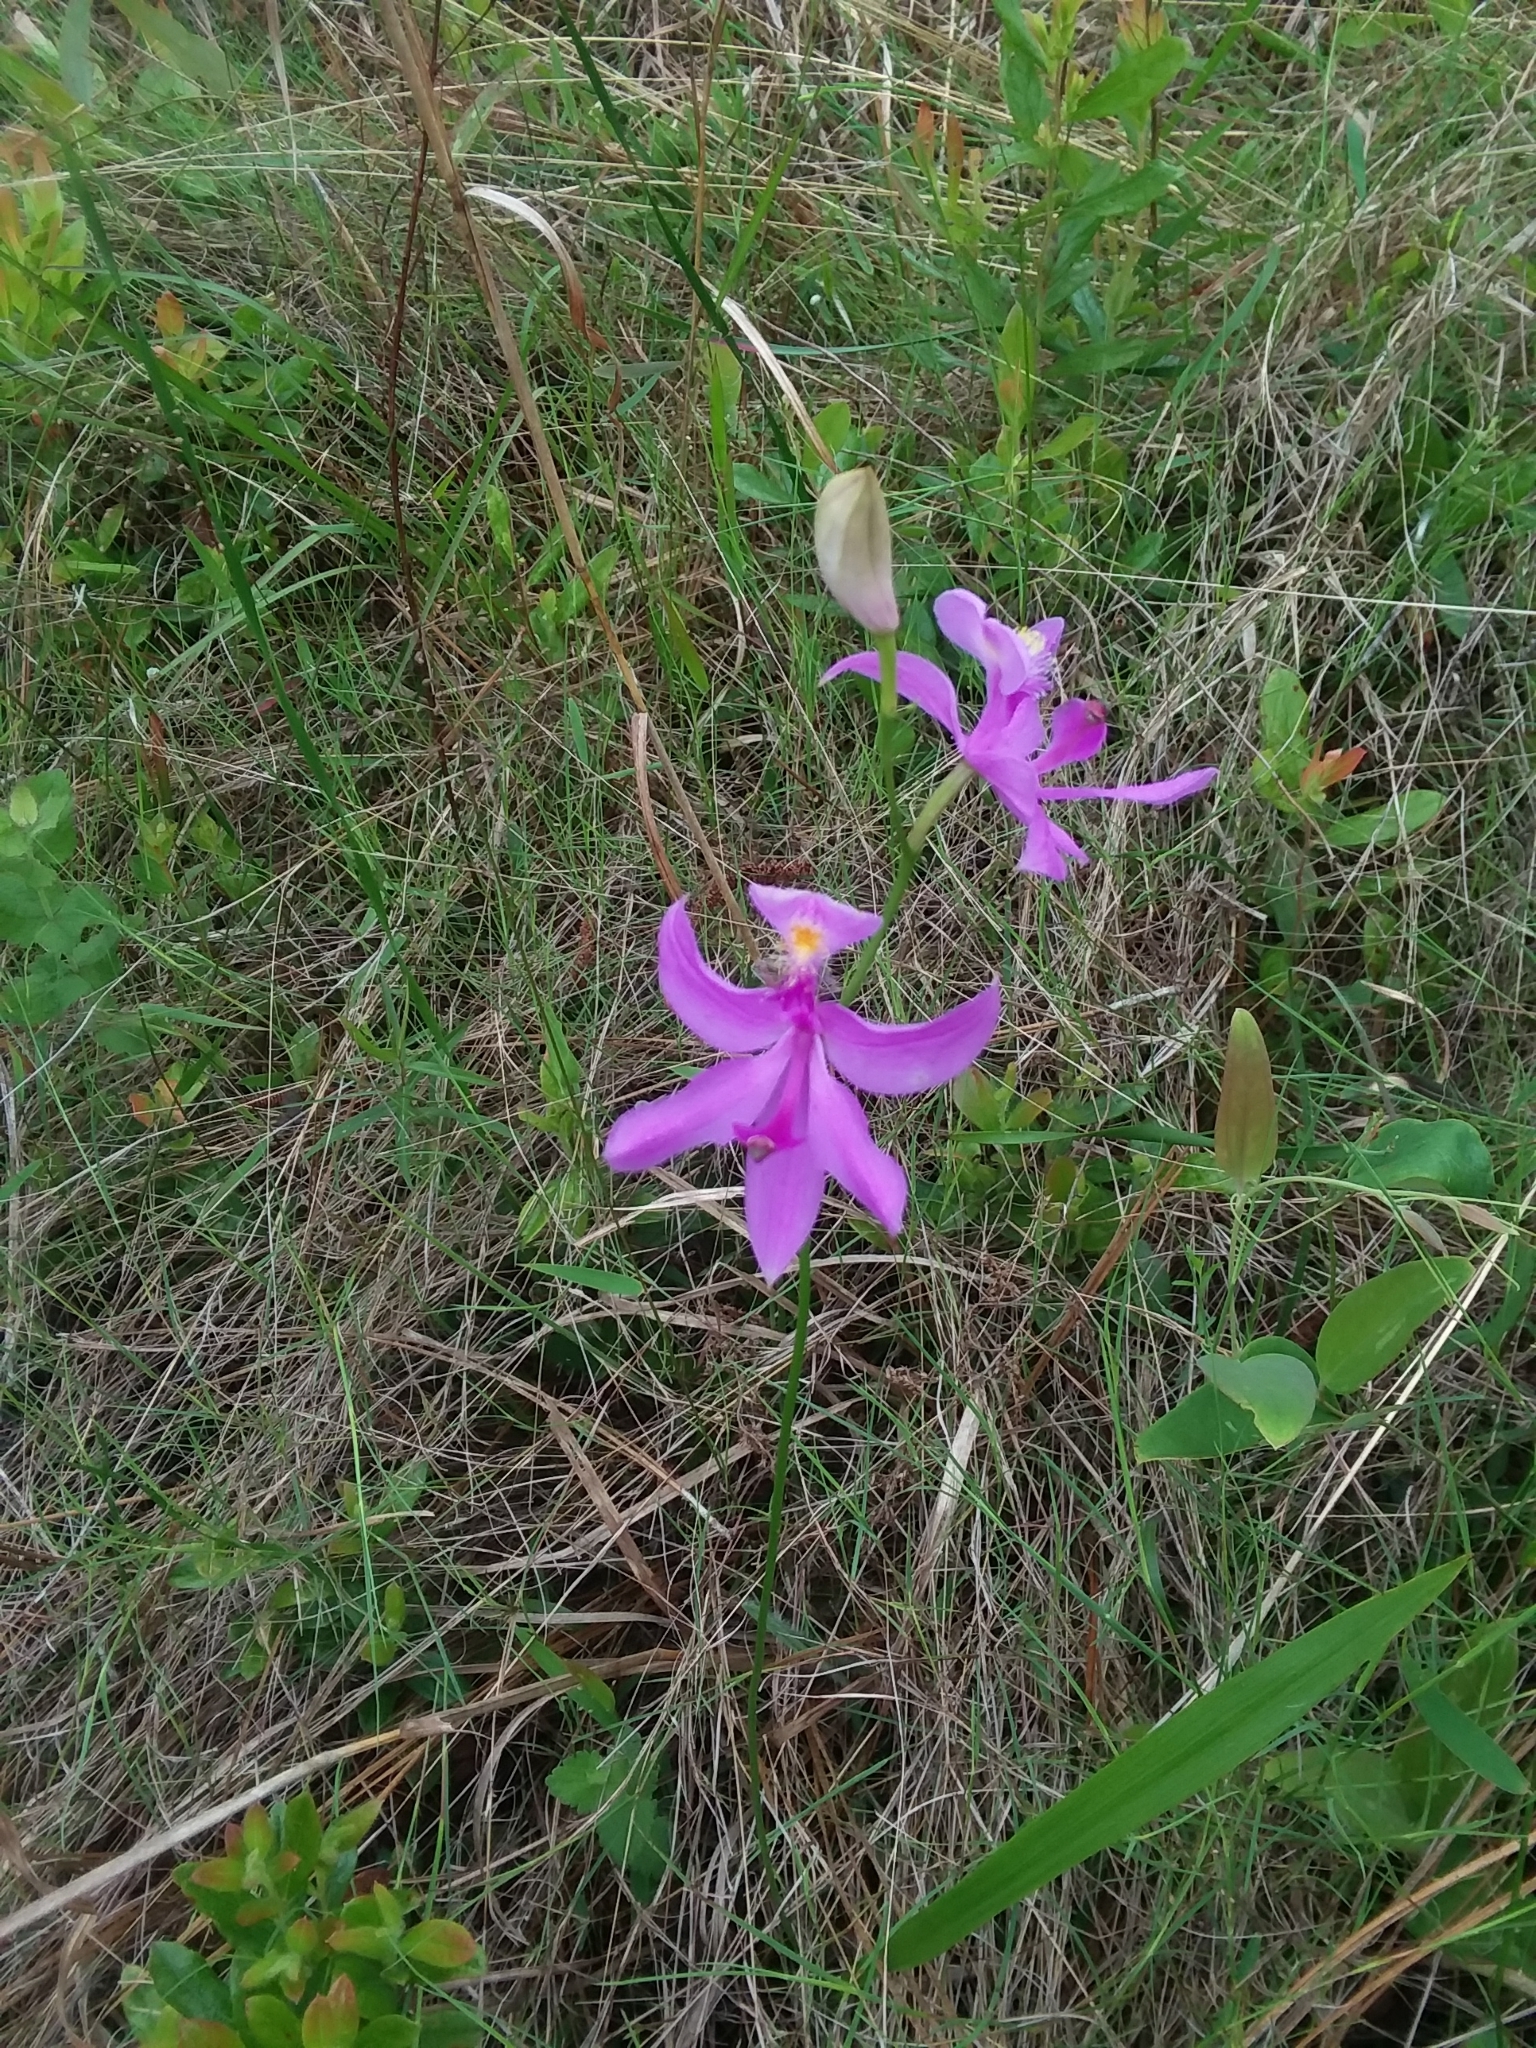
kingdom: Plantae
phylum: Tracheophyta
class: Liliopsida
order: Asparagales
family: Orchidaceae
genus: Calopogon
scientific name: Calopogon tuberosus
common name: Grass-pink
